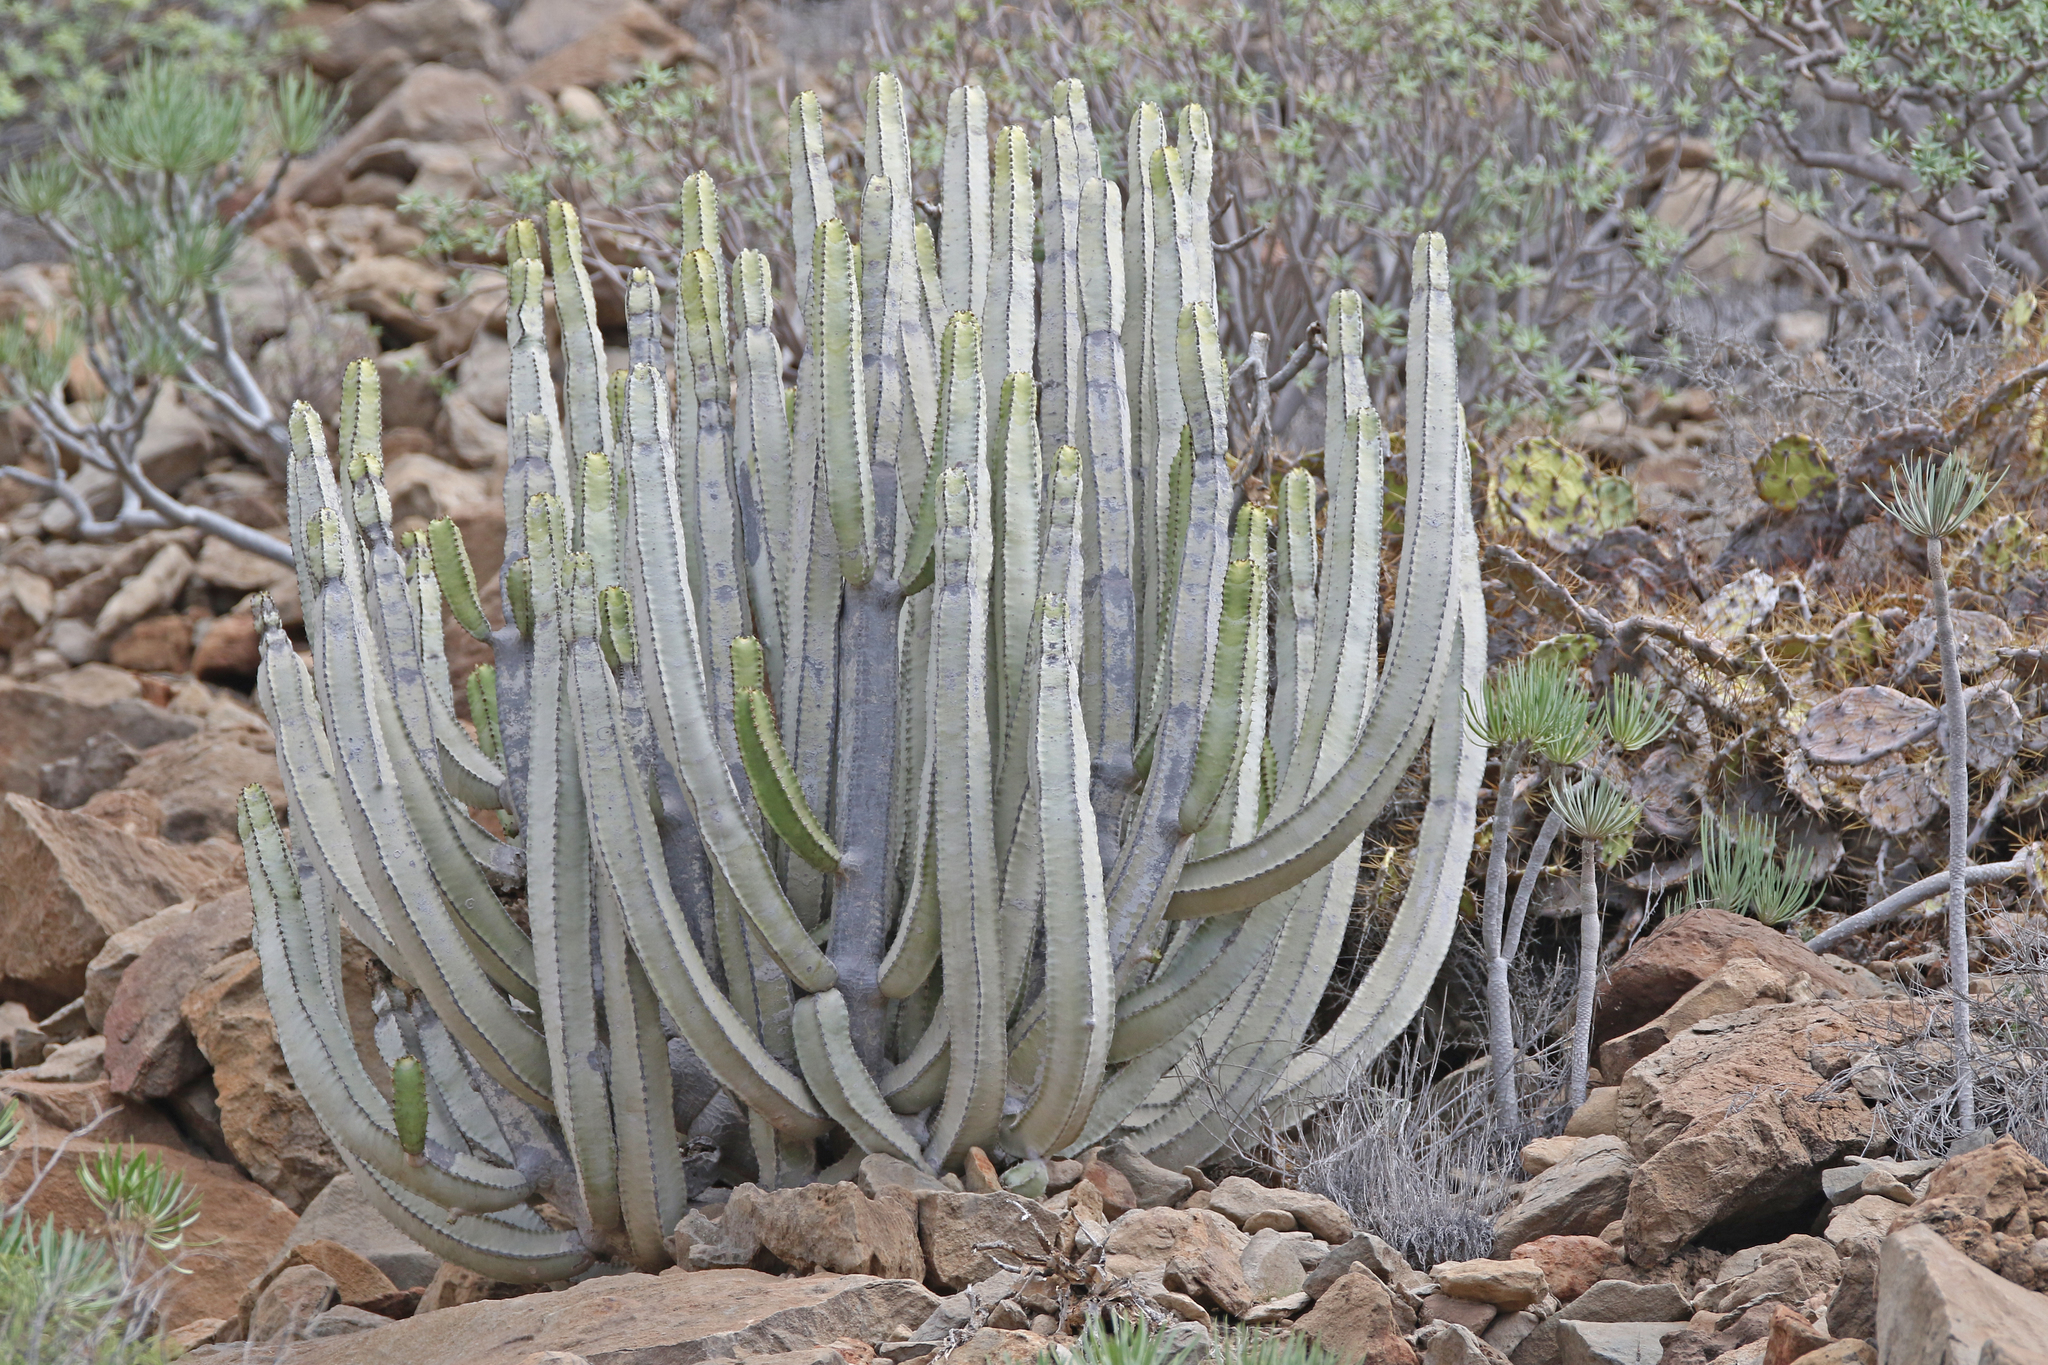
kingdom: Plantae
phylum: Tracheophyta
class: Magnoliopsida
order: Malpighiales
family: Euphorbiaceae
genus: Euphorbia
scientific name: Euphorbia canariensis
